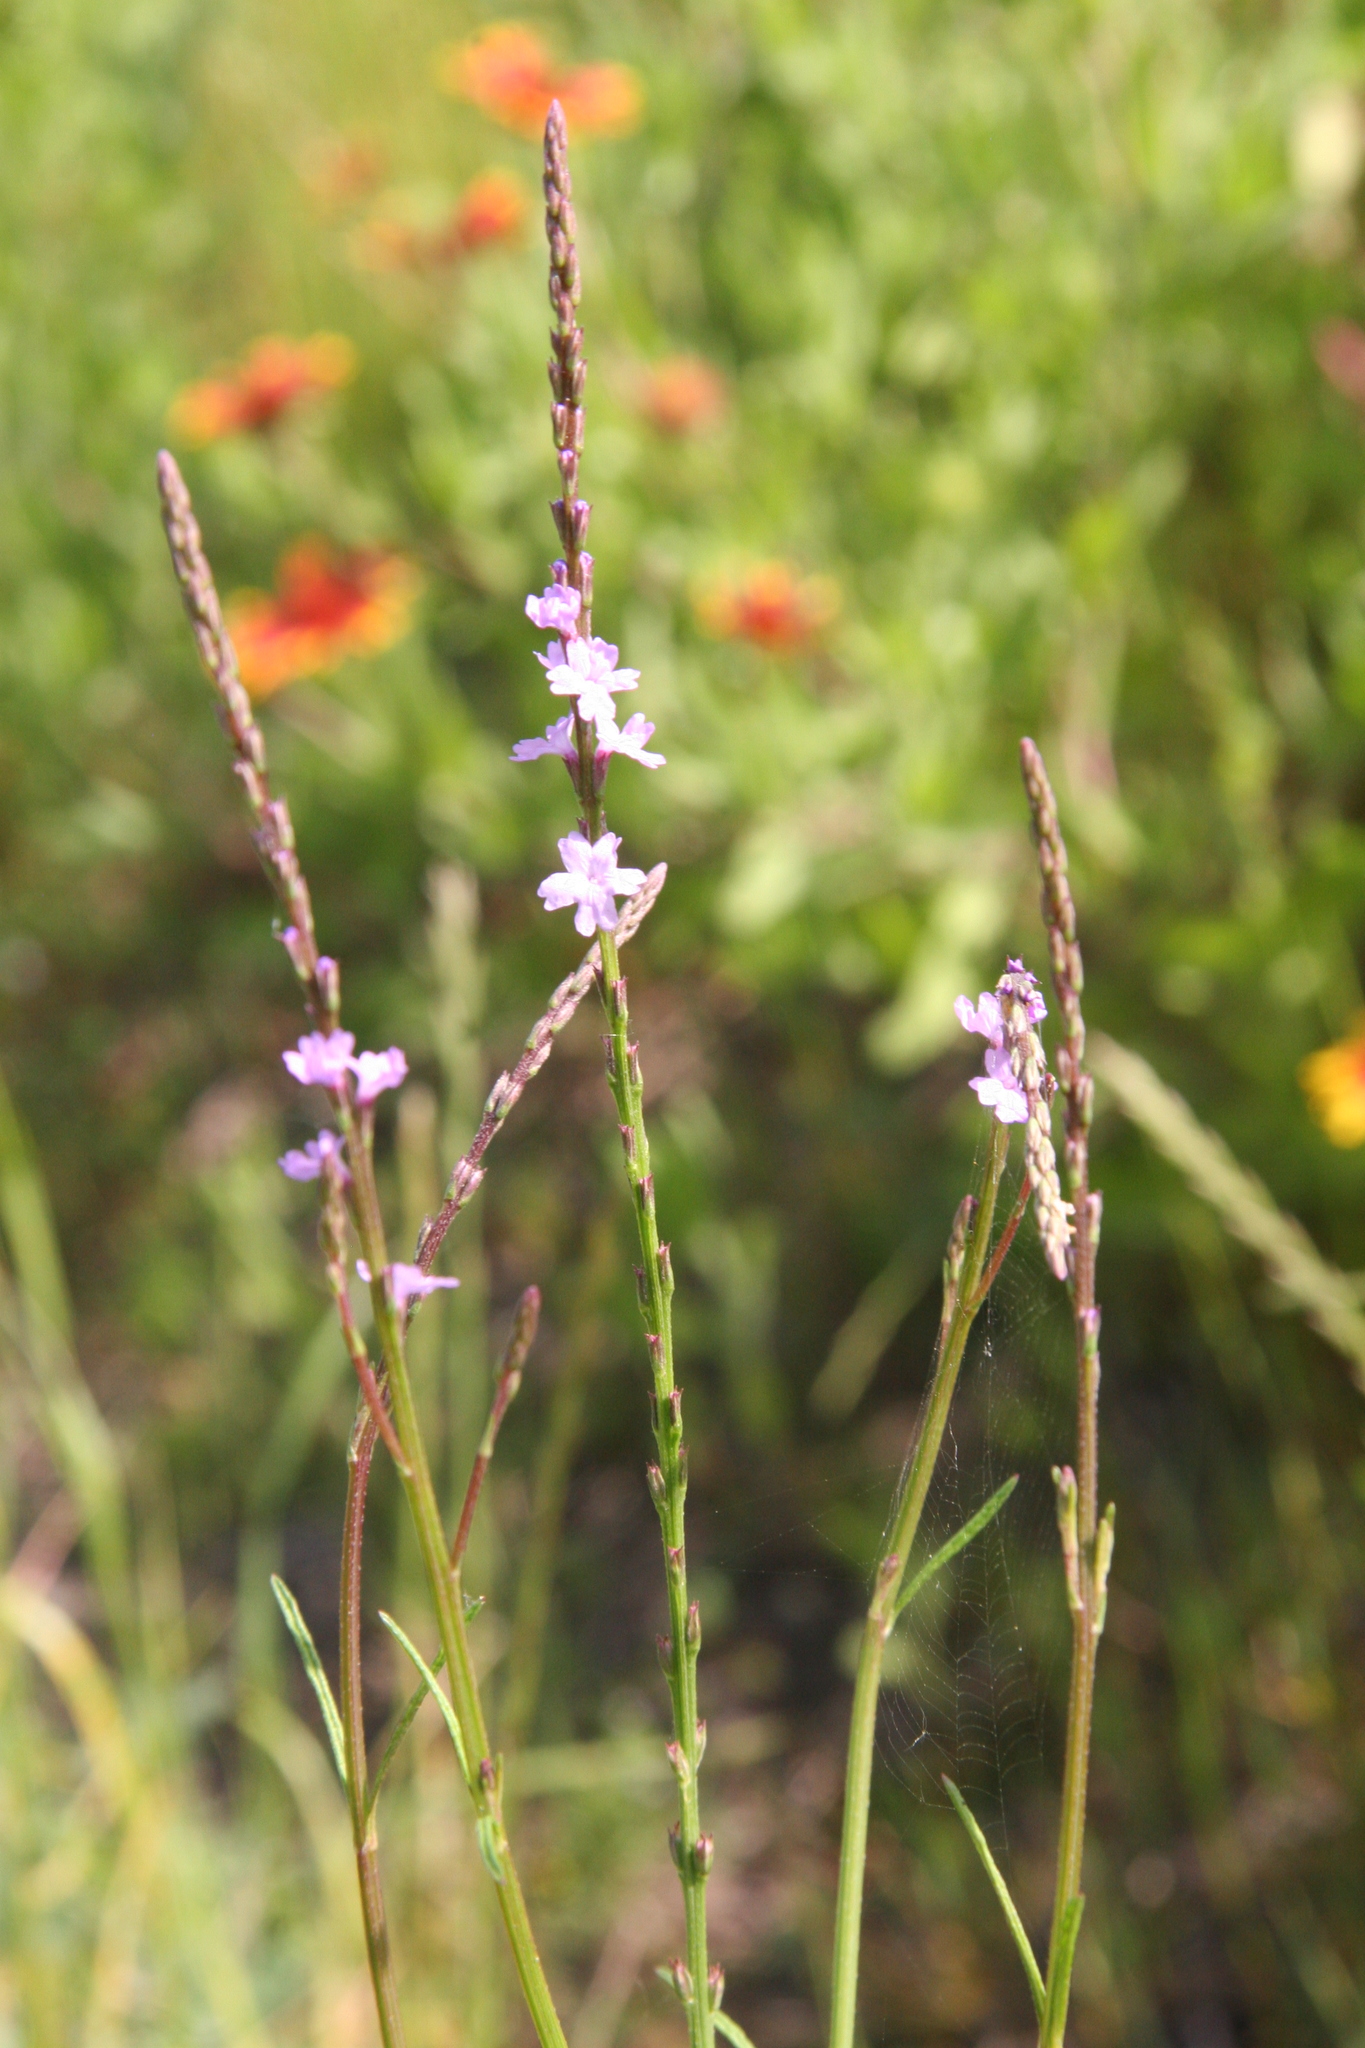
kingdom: Plantae
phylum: Tracheophyta
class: Magnoliopsida
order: Lamiales
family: Verbenaceae
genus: Verbena
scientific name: Verbena halei
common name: Texas vervain
